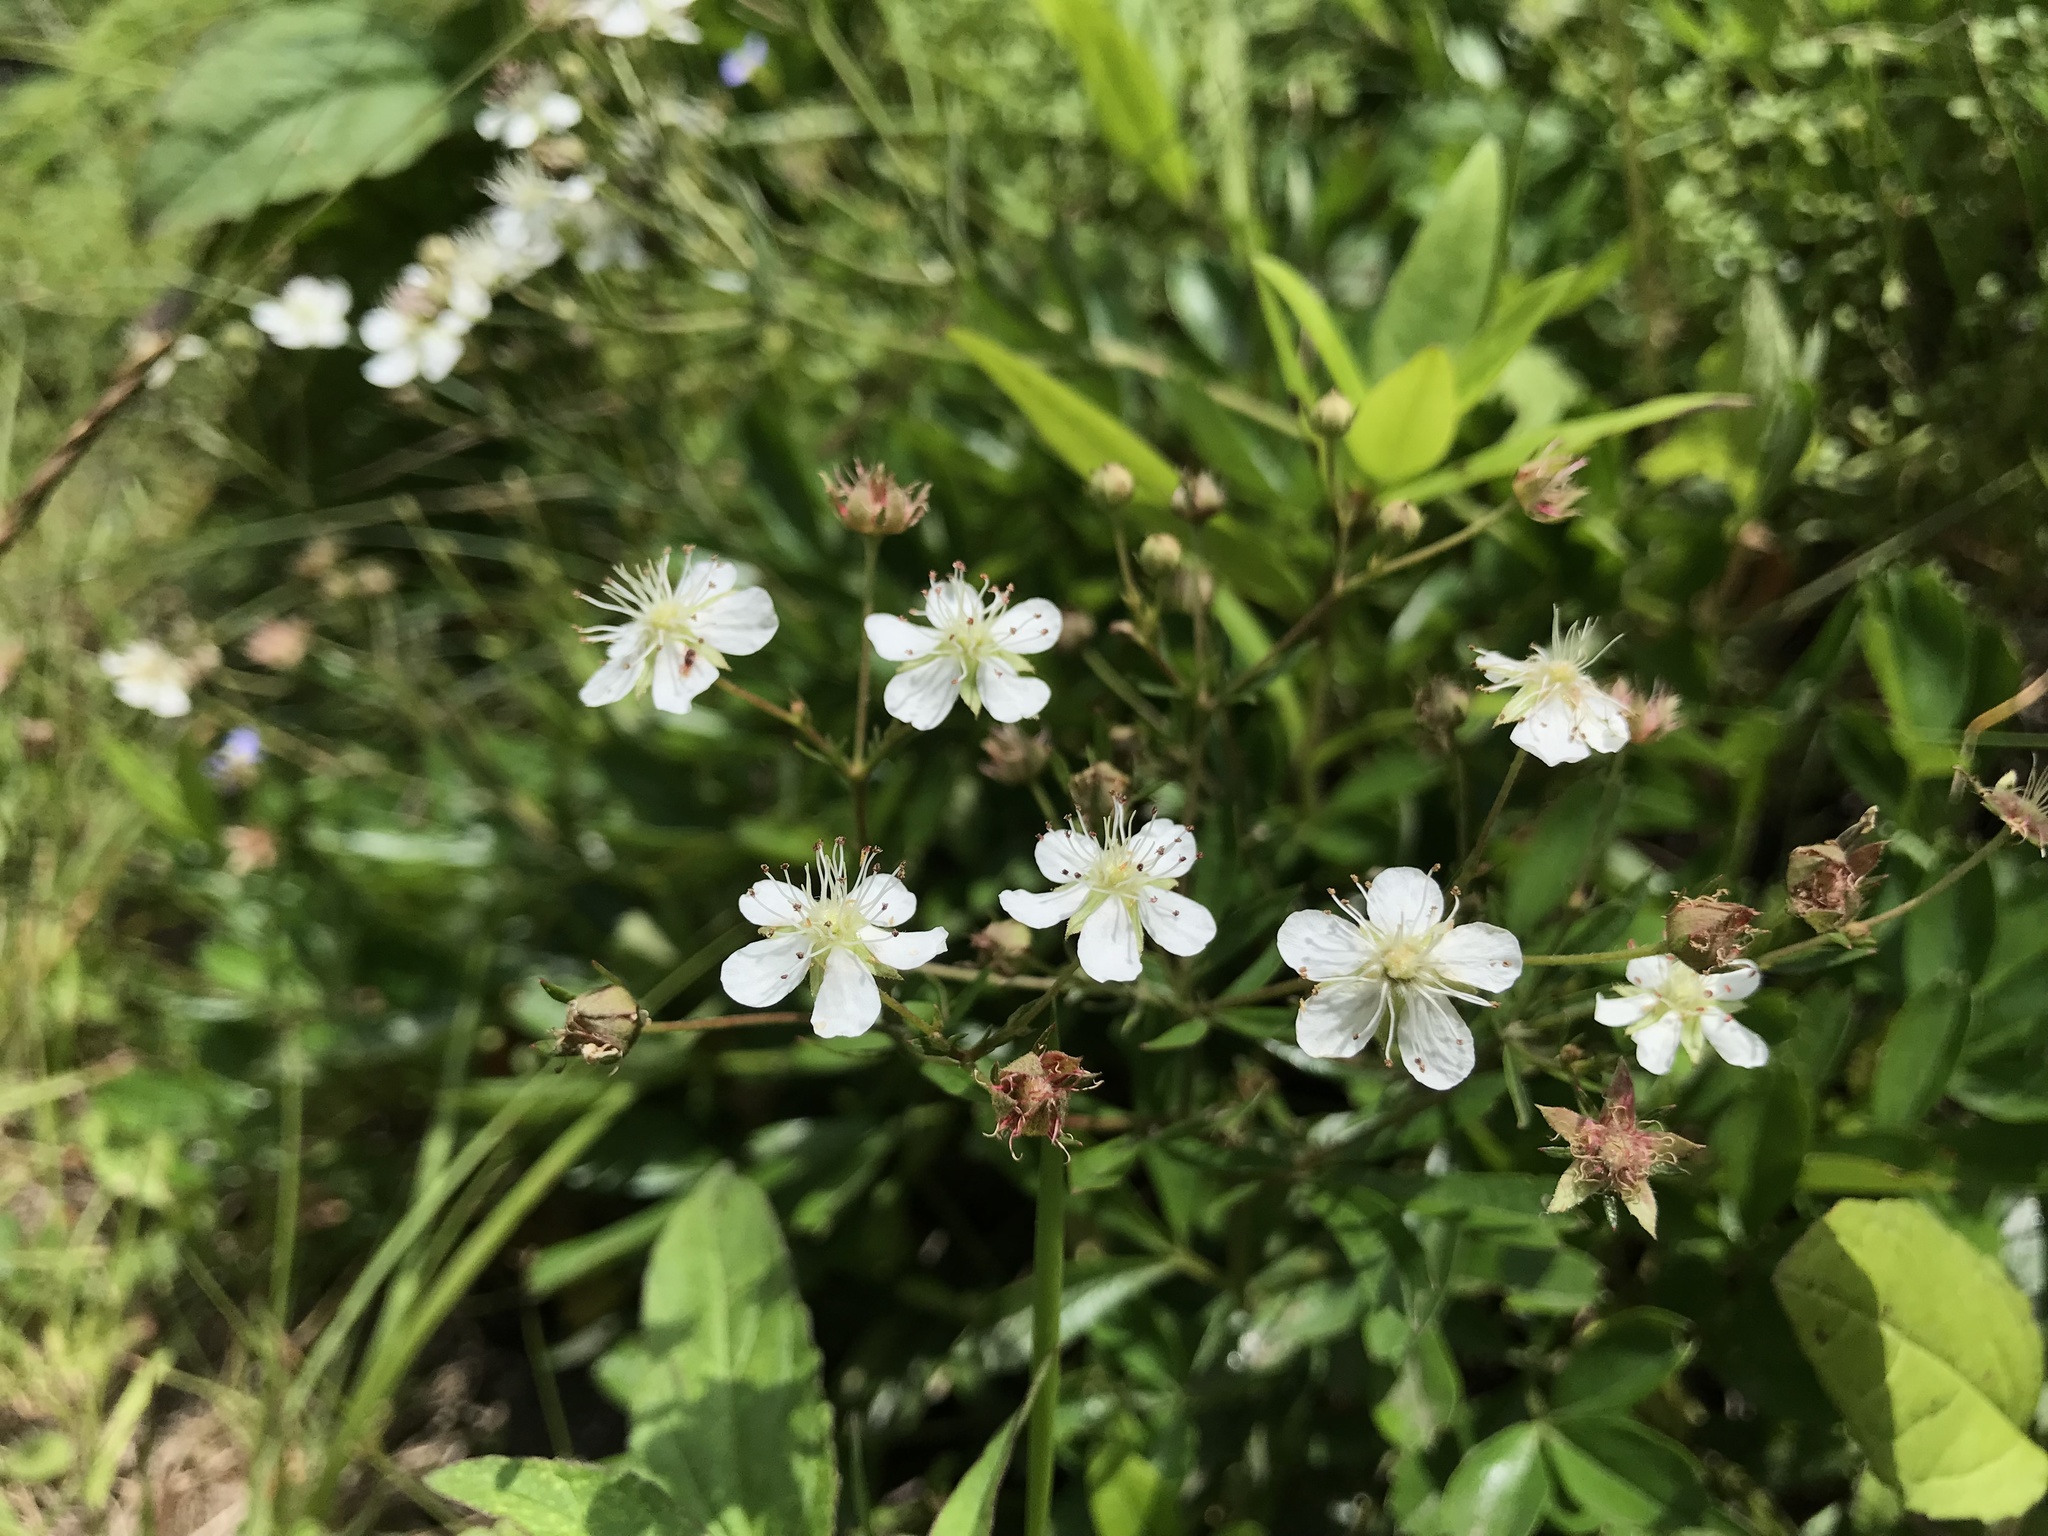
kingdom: Plantae
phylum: Tracheophyta
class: Magnoliopsida
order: Rosales
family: Rosaceae
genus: Sibbaldia
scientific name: Sibbaldia tridentata
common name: Three-toothed cinquefoil
